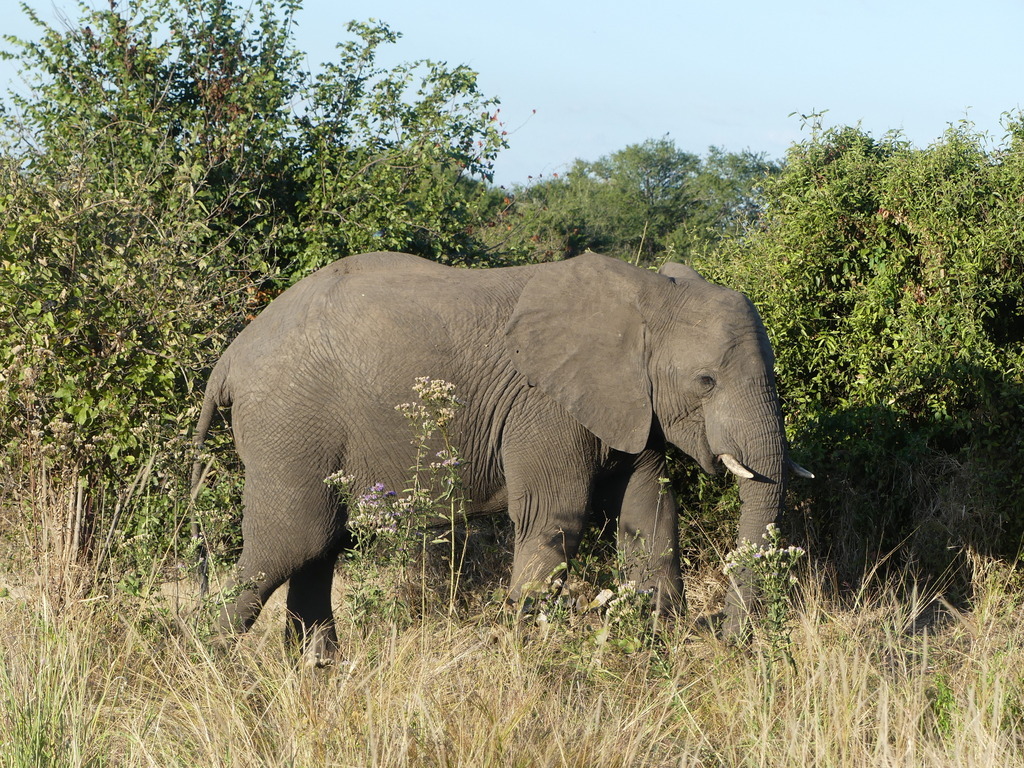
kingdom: Animalia
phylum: Chordata
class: Mammalia
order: Proboscidea
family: Elephantidae
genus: Loxodonta
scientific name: Loxodonta africana
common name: African elephant
